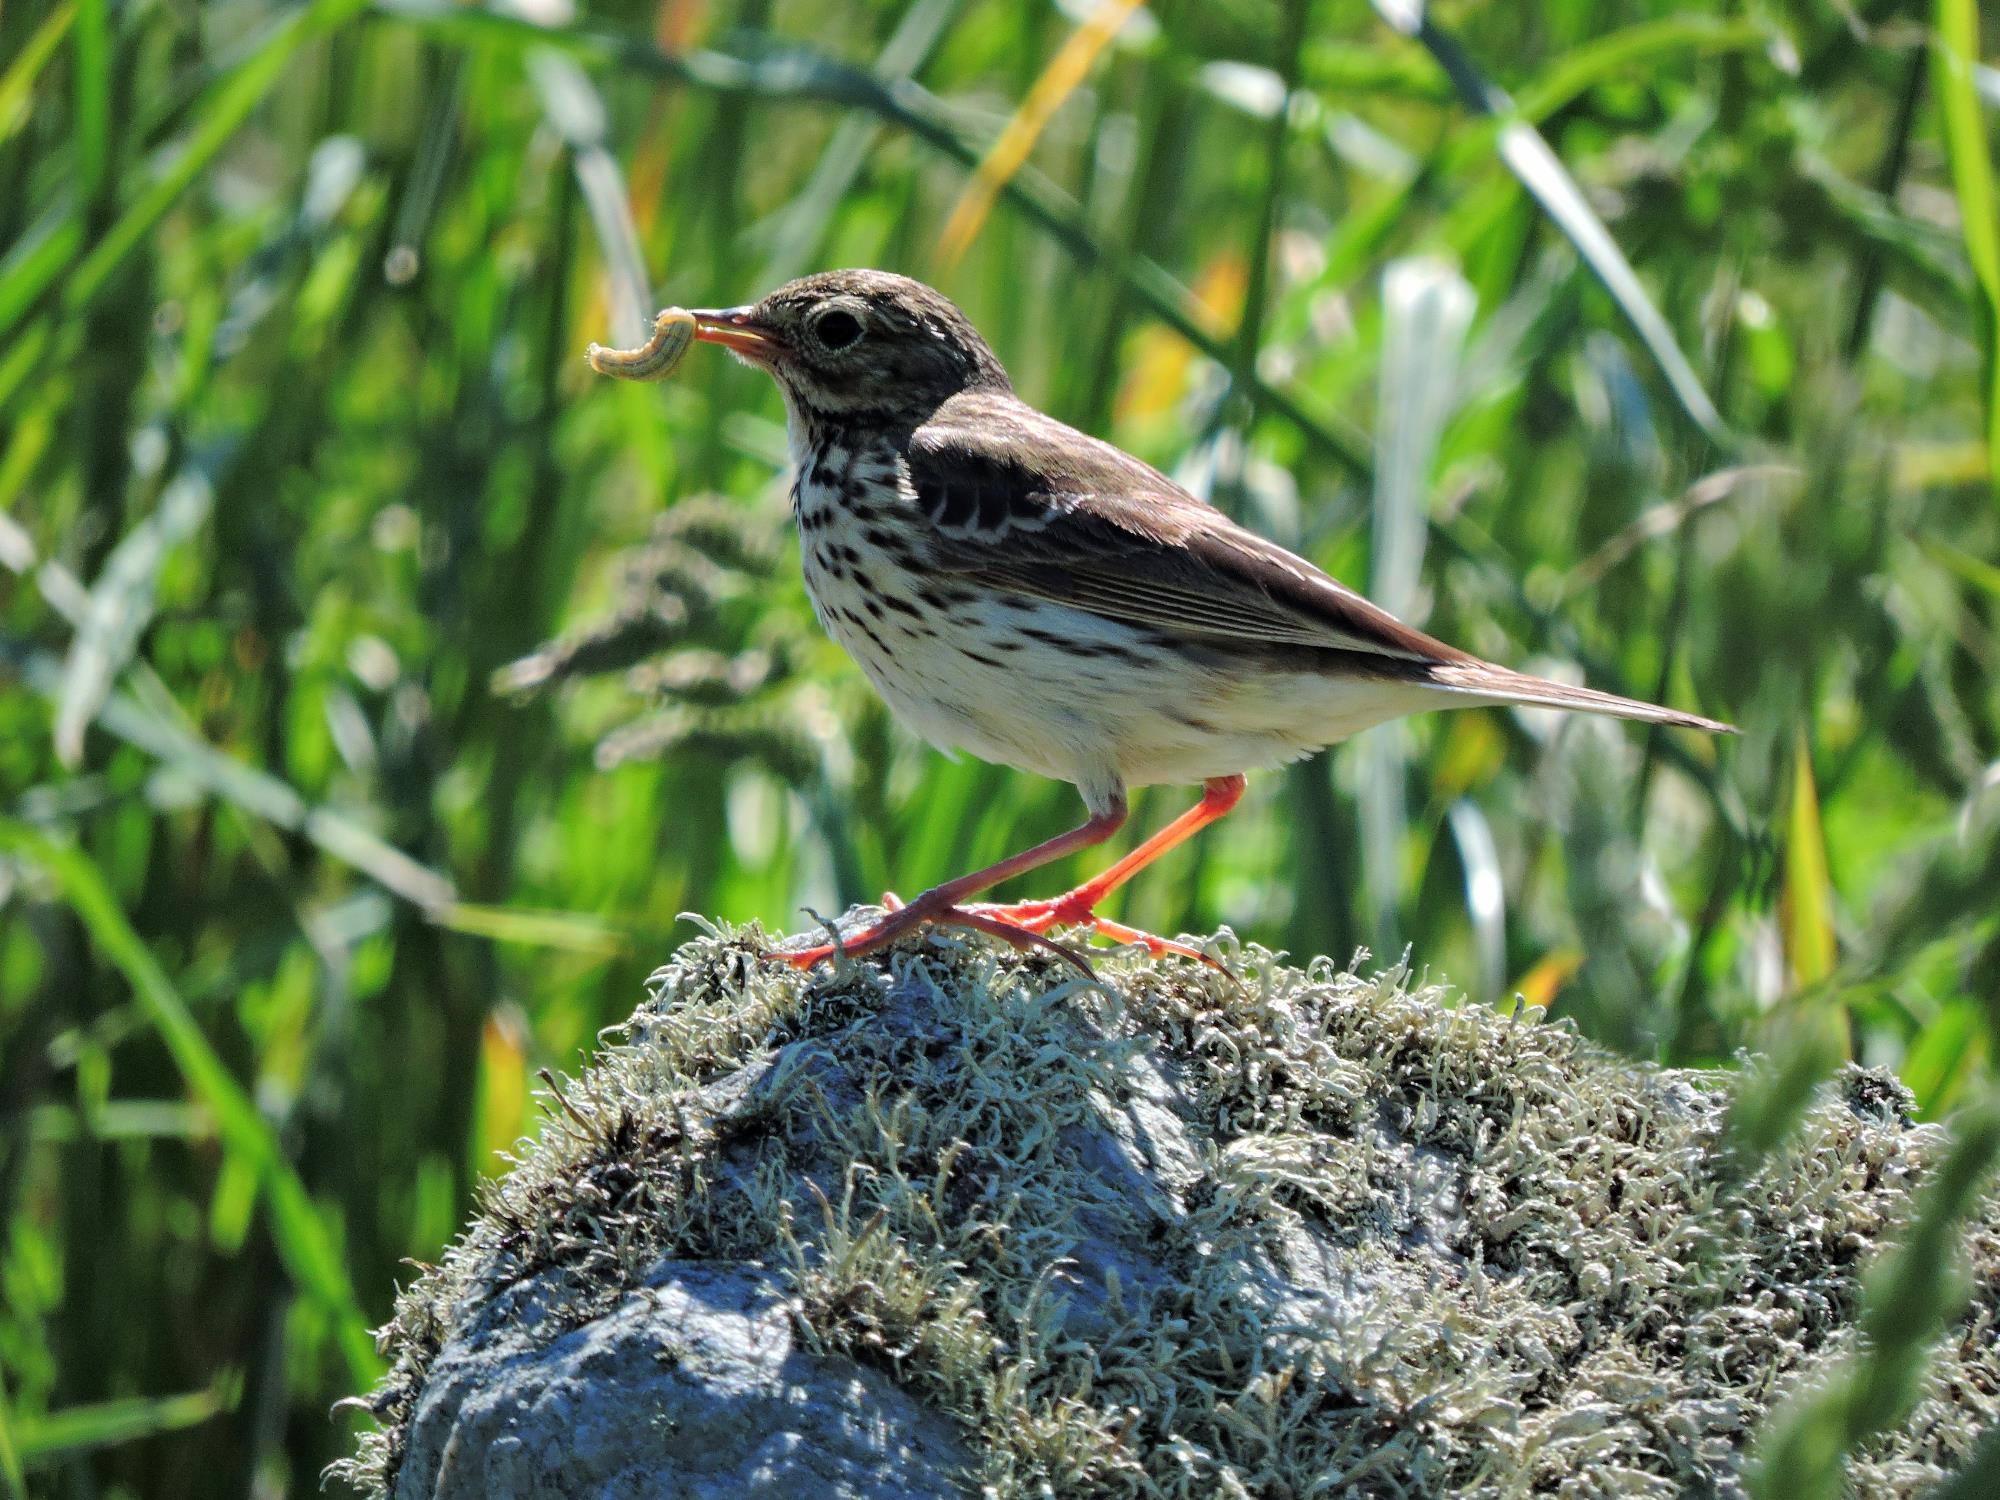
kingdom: Animalia
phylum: Chordata
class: Aves
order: Passeriformes
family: Motacillidae
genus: Anthus
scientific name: Anthus pratensis
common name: Meadow pipit
